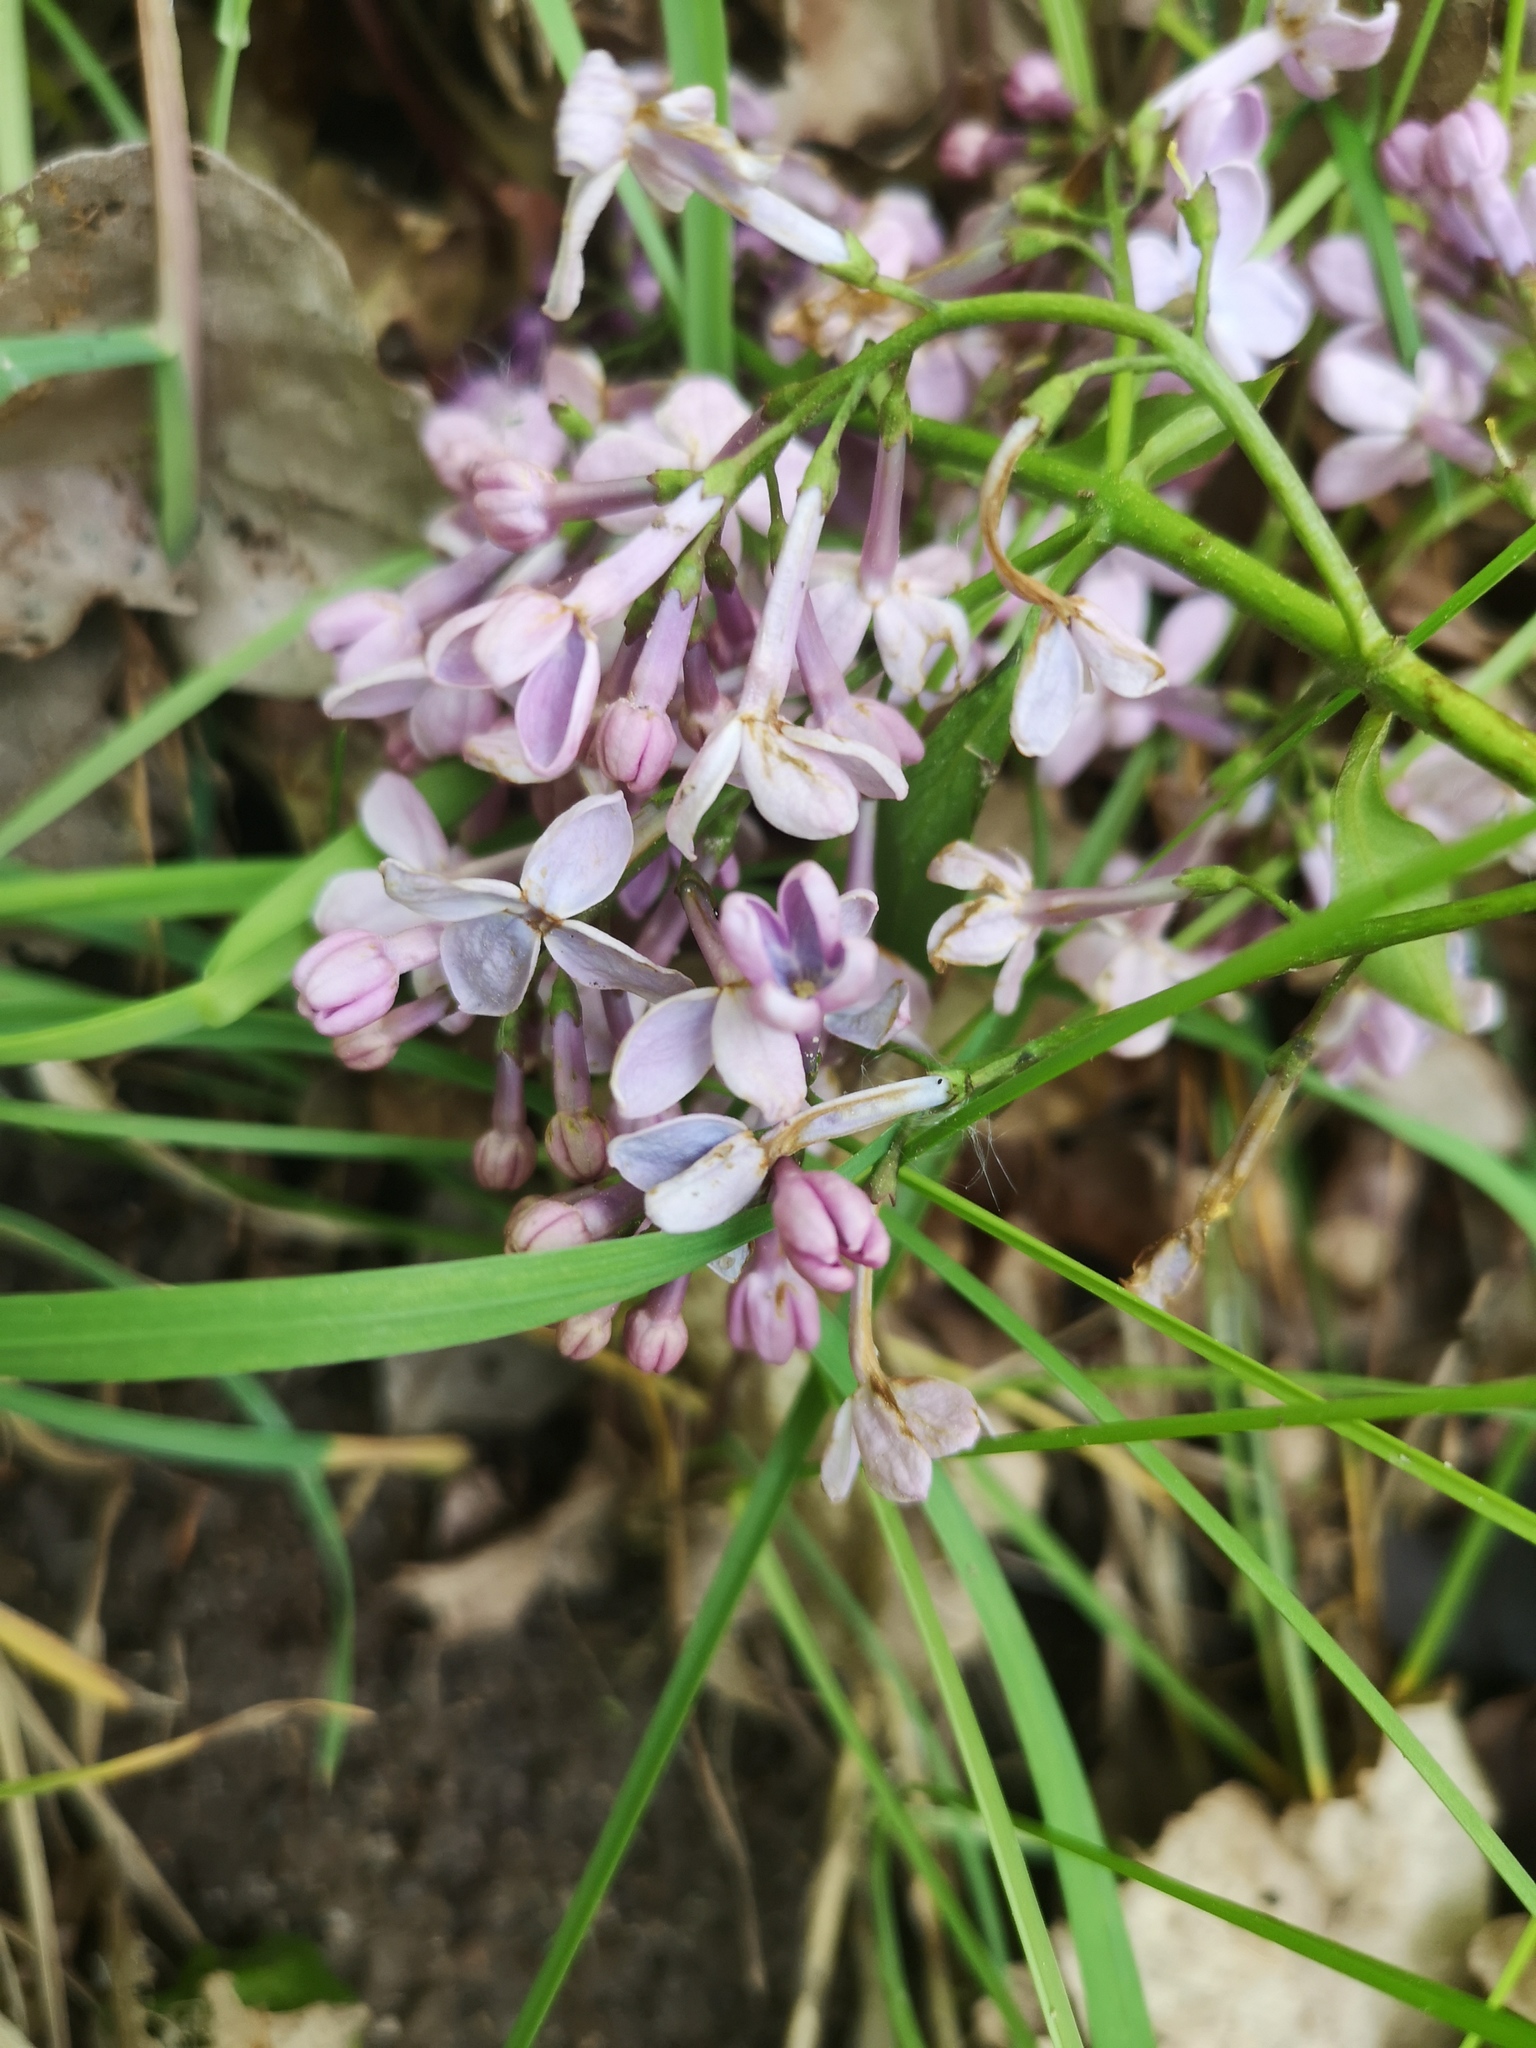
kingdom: Plantae
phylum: Tracheophyta
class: Magnoliopsida
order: Lamiales
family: Oleaceae
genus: Syringa
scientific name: Syringa vulgaris
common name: Common lilac
